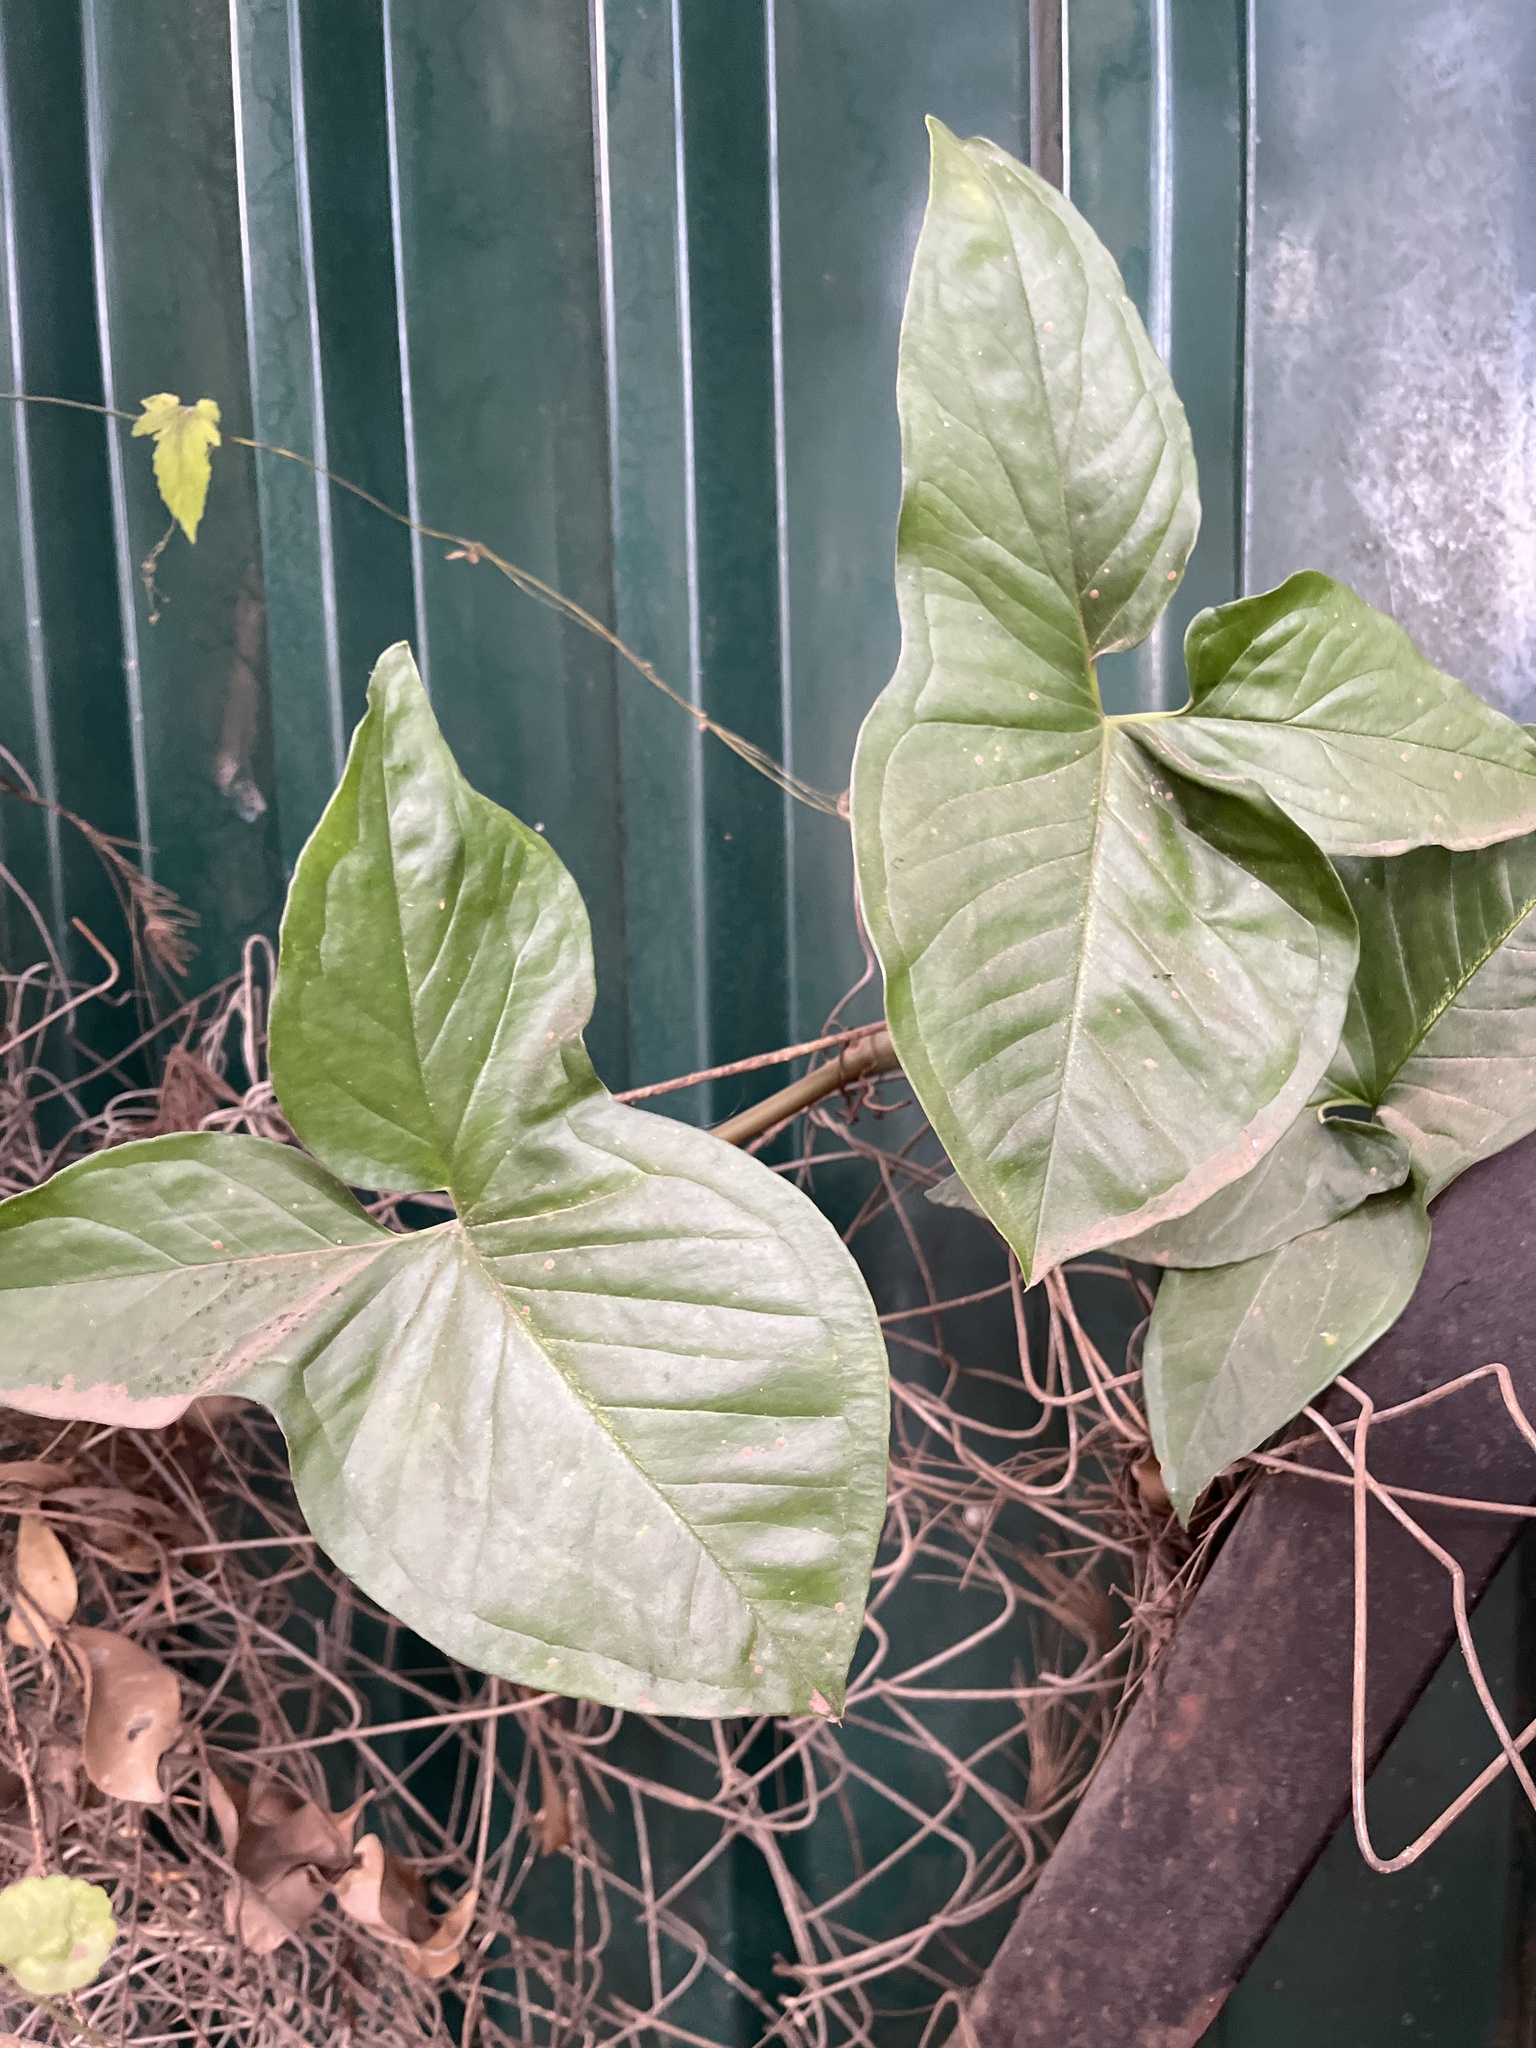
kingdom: Plantae
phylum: Tracheophyta
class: Liliopsida
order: Alismatales
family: Araceae
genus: Syngonium
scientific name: Syngonium podophyllum
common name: American evergreen
